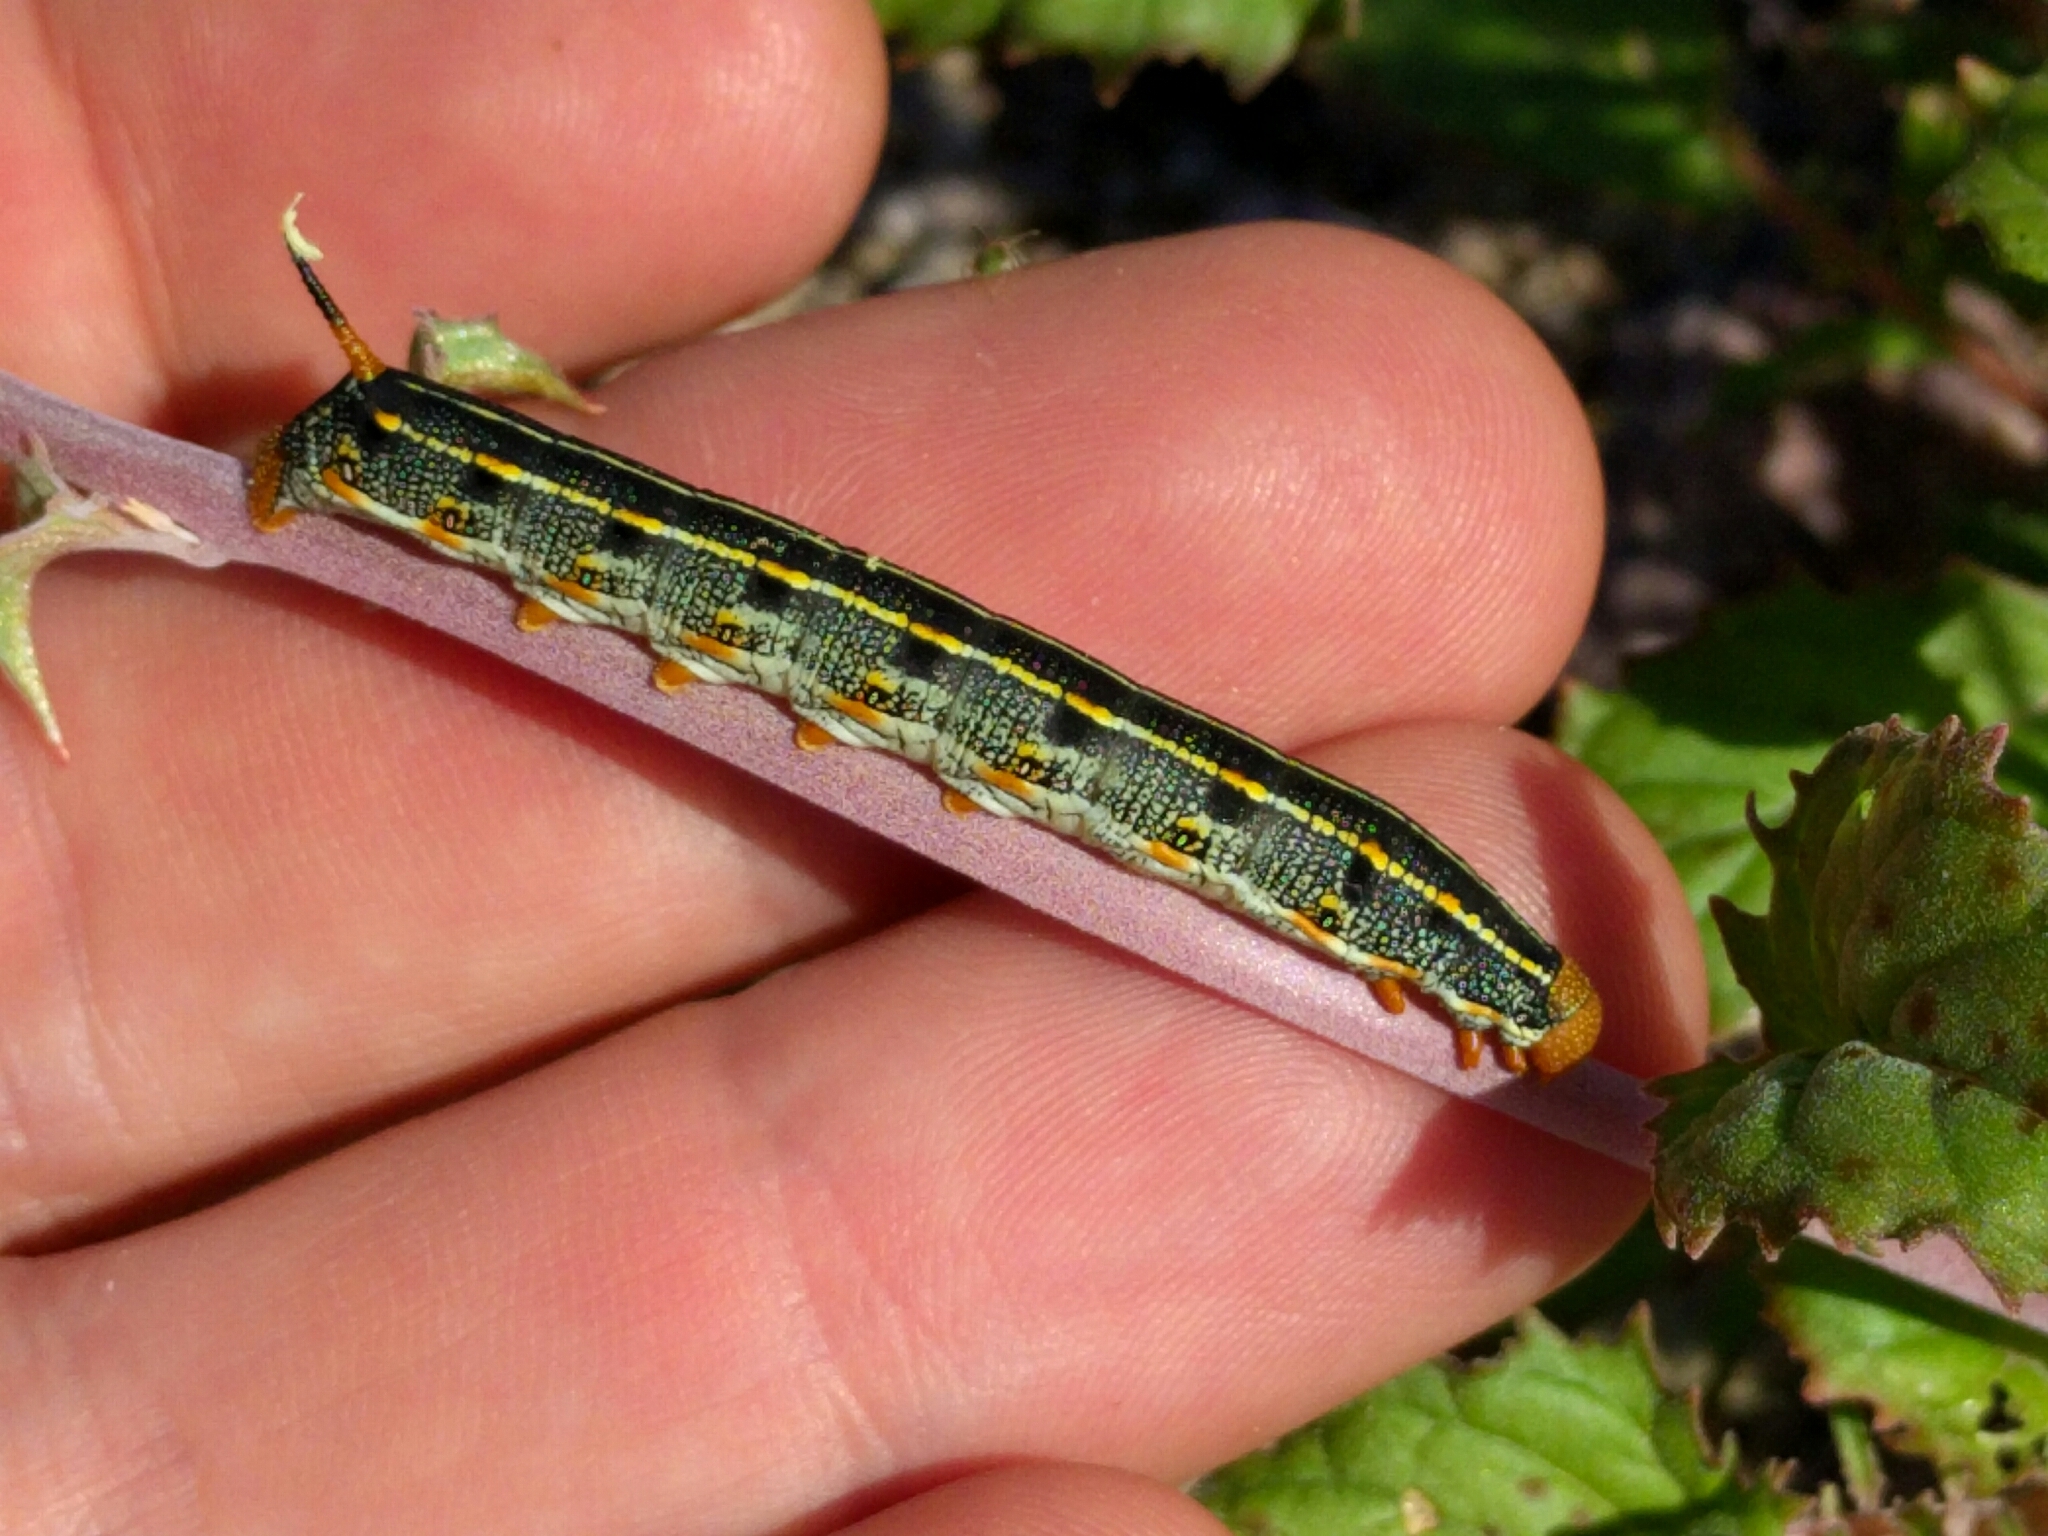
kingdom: Animalia
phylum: Arthropoda
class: Insecta
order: Lepidoptera
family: Sphingidae
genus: Hyles
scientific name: Hyles lineata
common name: White-lined sphinx
